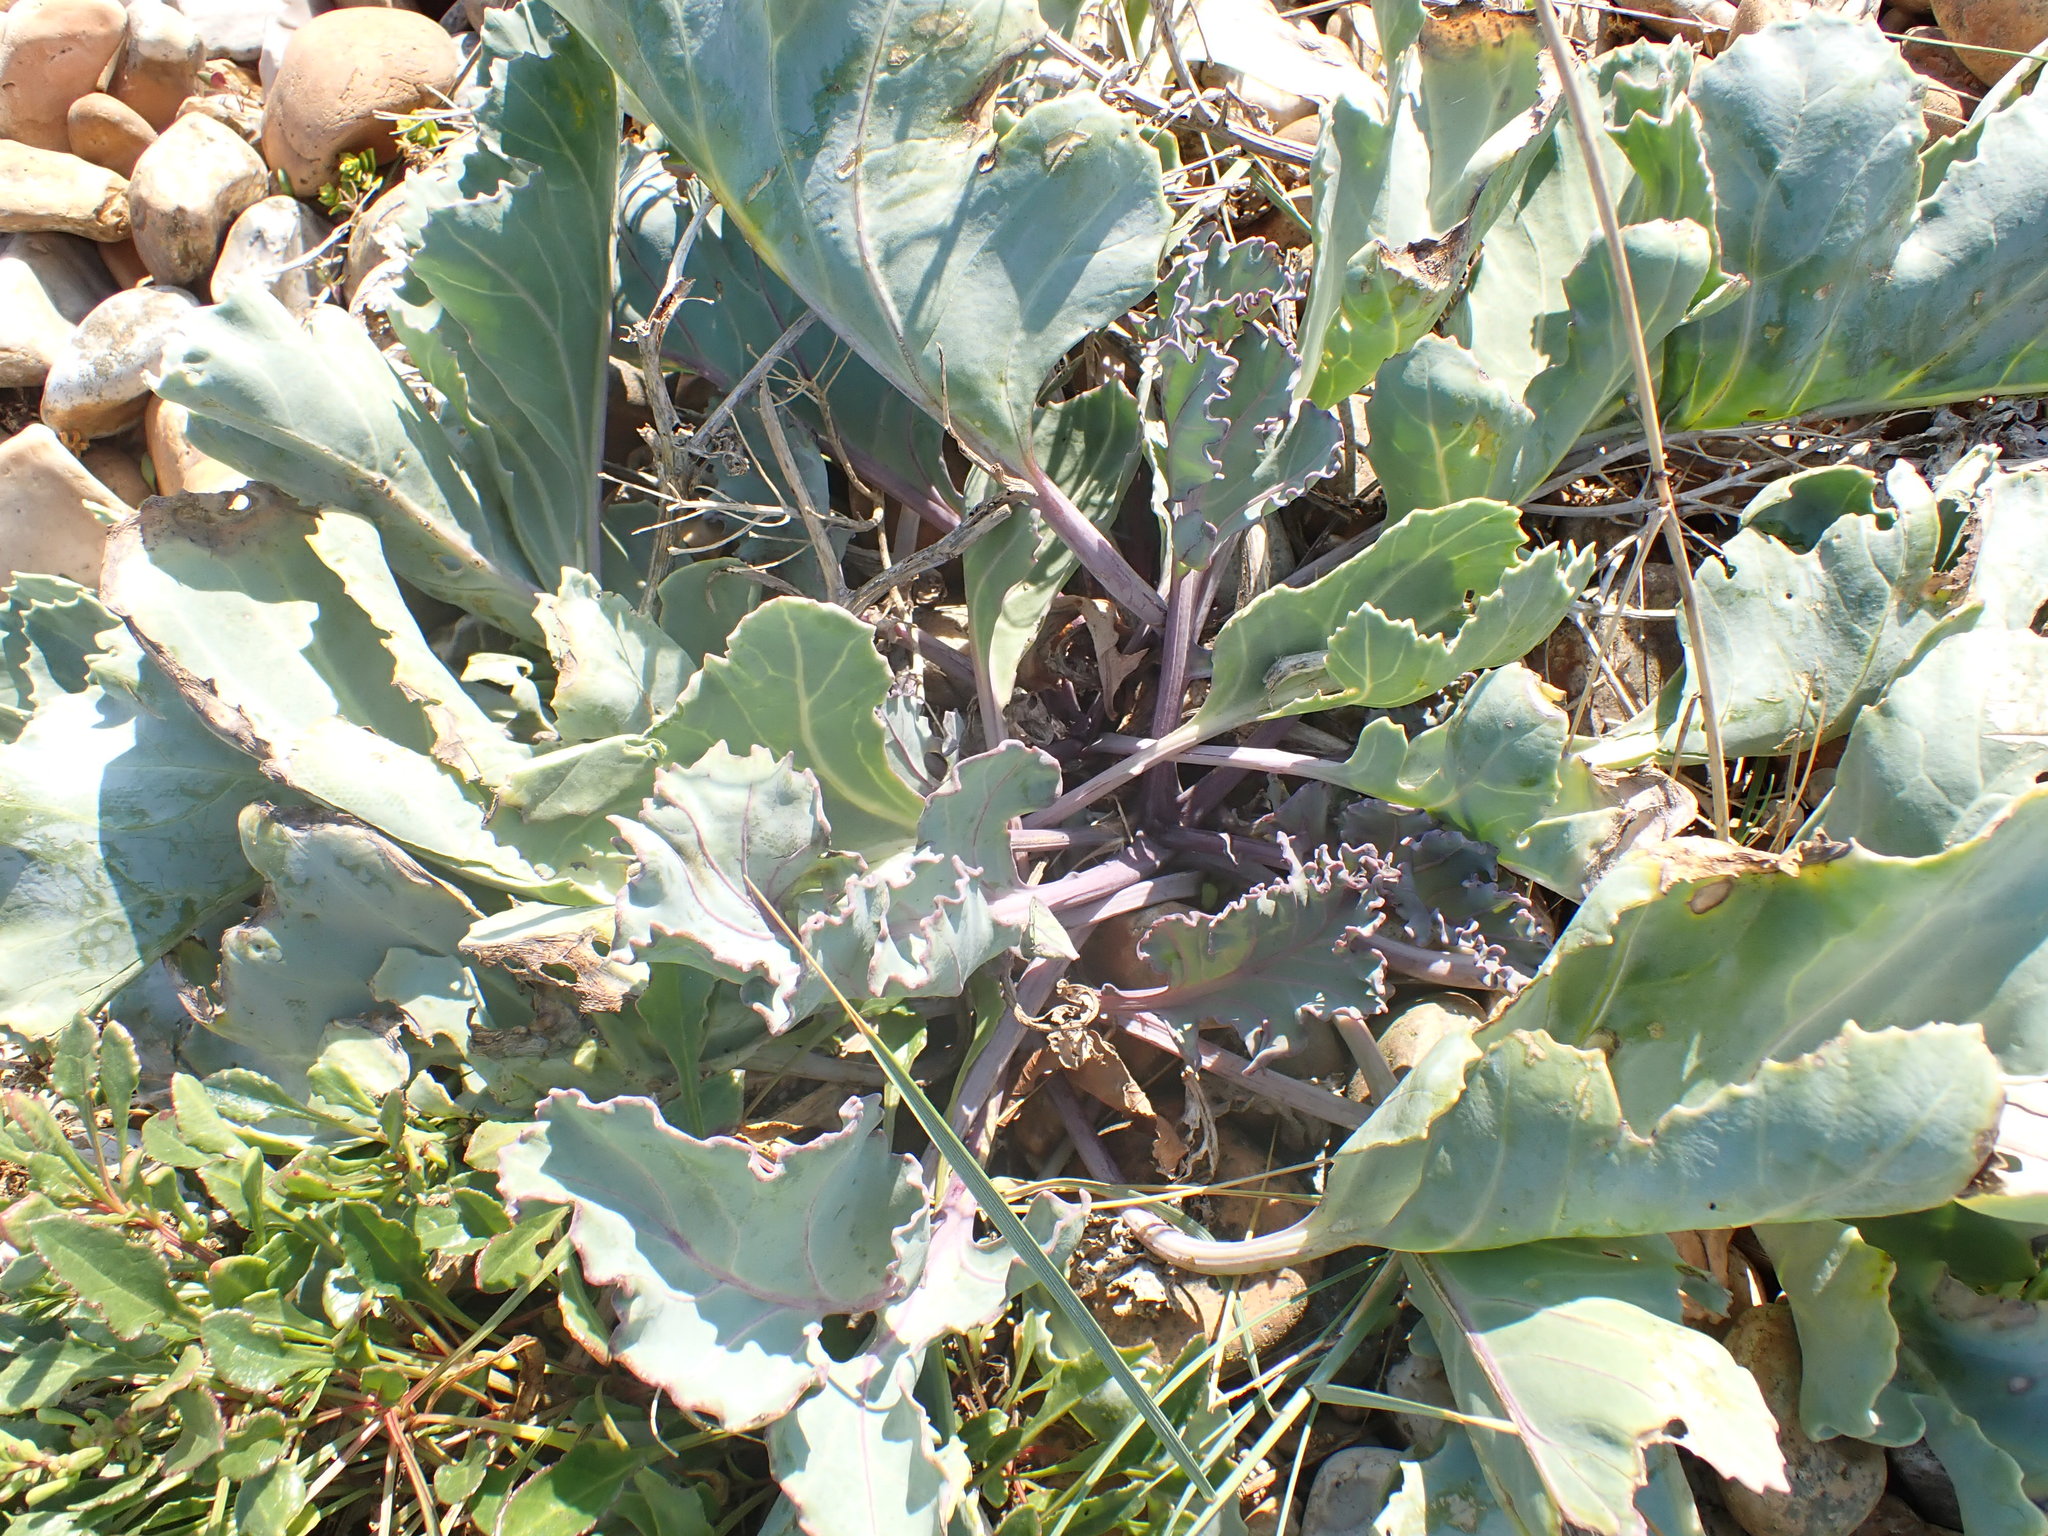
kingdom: Plantae
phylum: Tracheophyta
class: Magnoliopsida
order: Brassicales
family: Brassicaceae
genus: Crambe
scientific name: Crambe maritima
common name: Sea-kale
